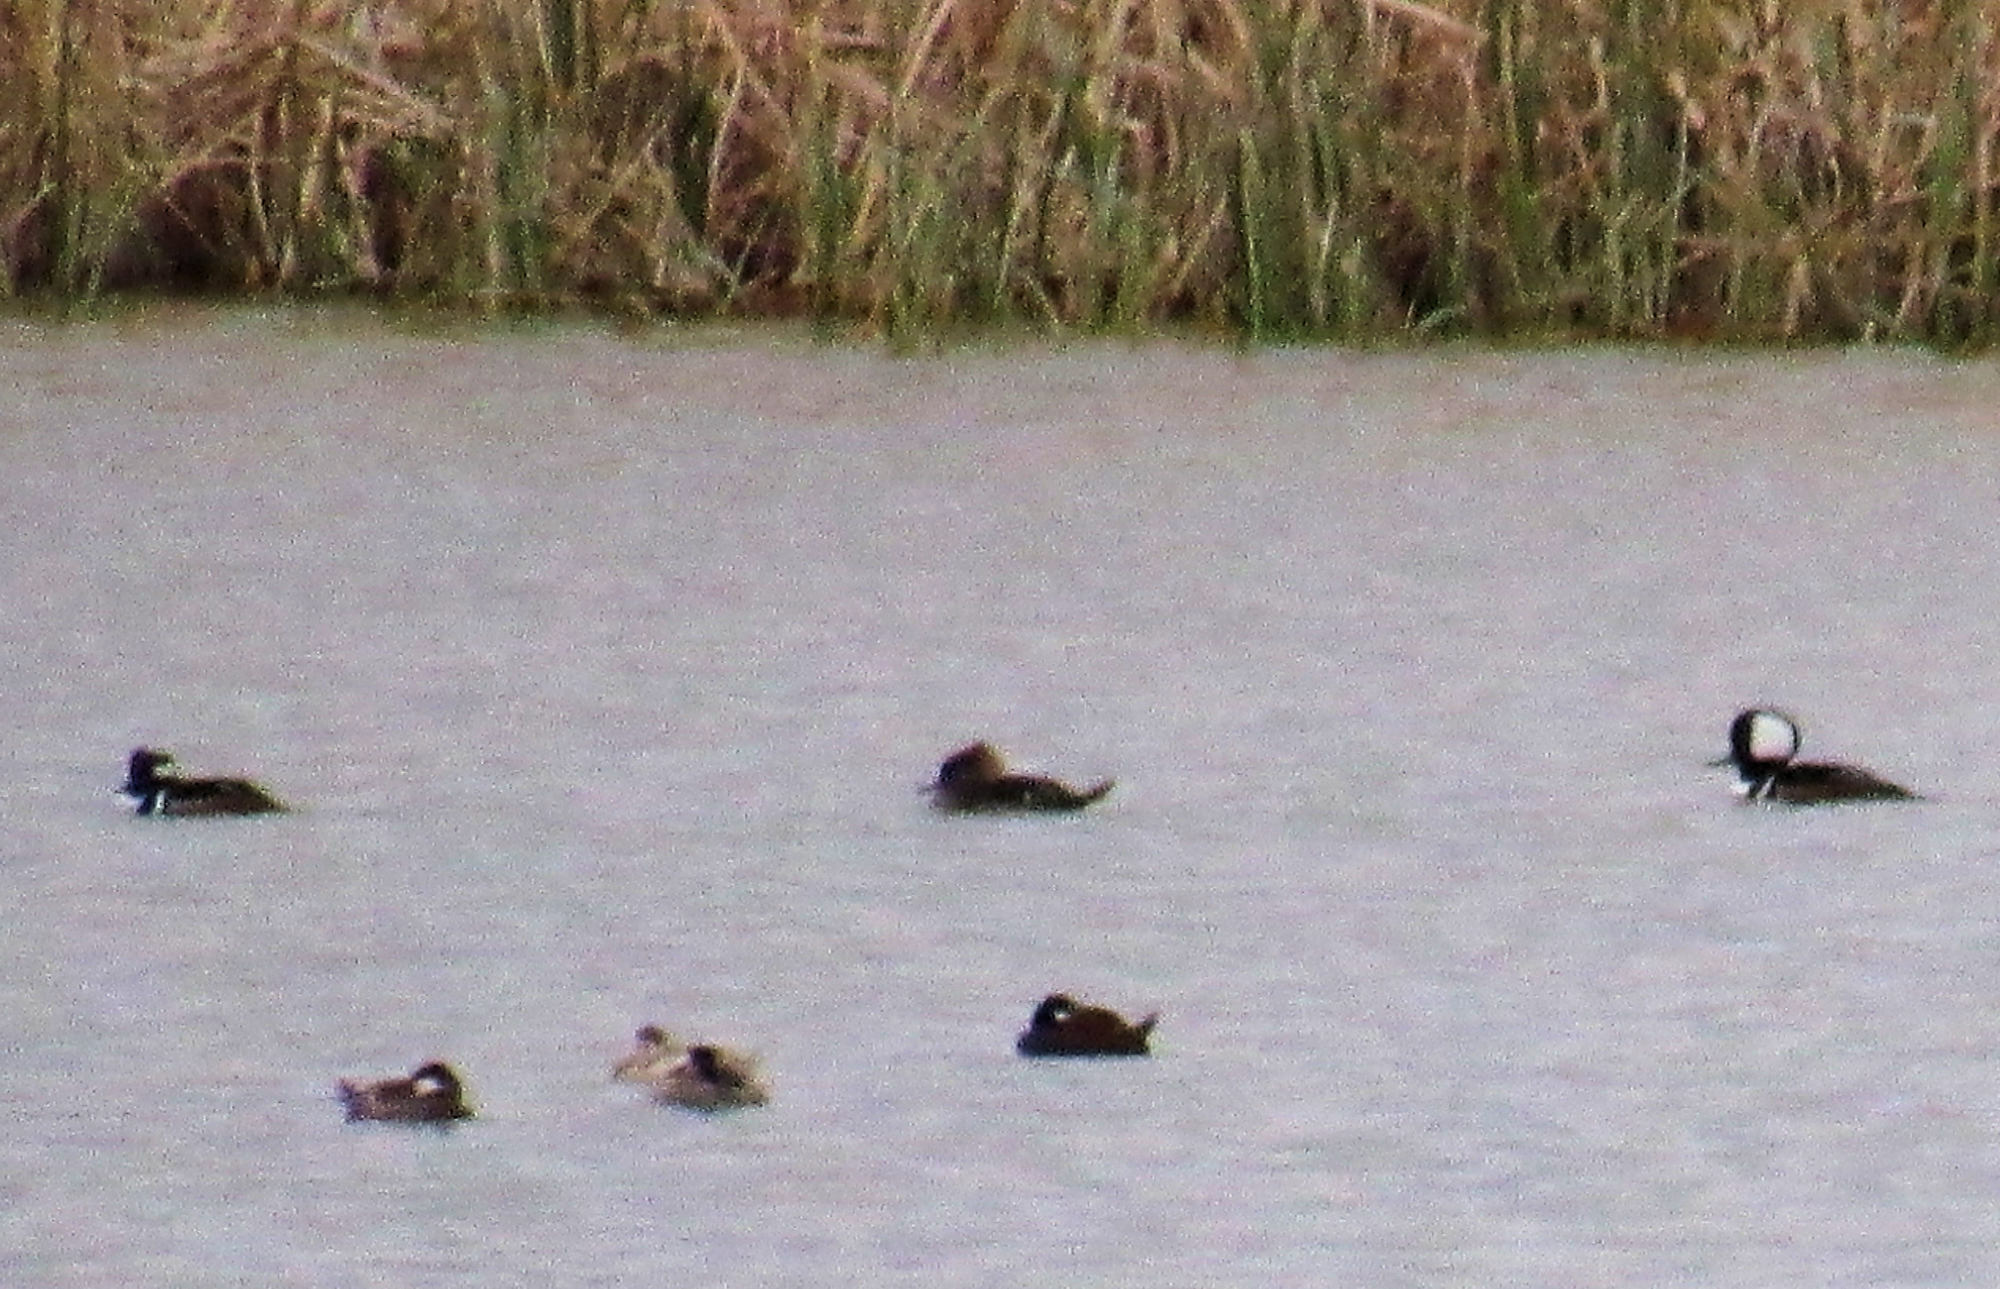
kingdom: Animalia
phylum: Chordata
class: Aves
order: Anseriformes
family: Anatidae
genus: Lophodytes
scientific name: Lophodytes cucullatus
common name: Hooded merganser
